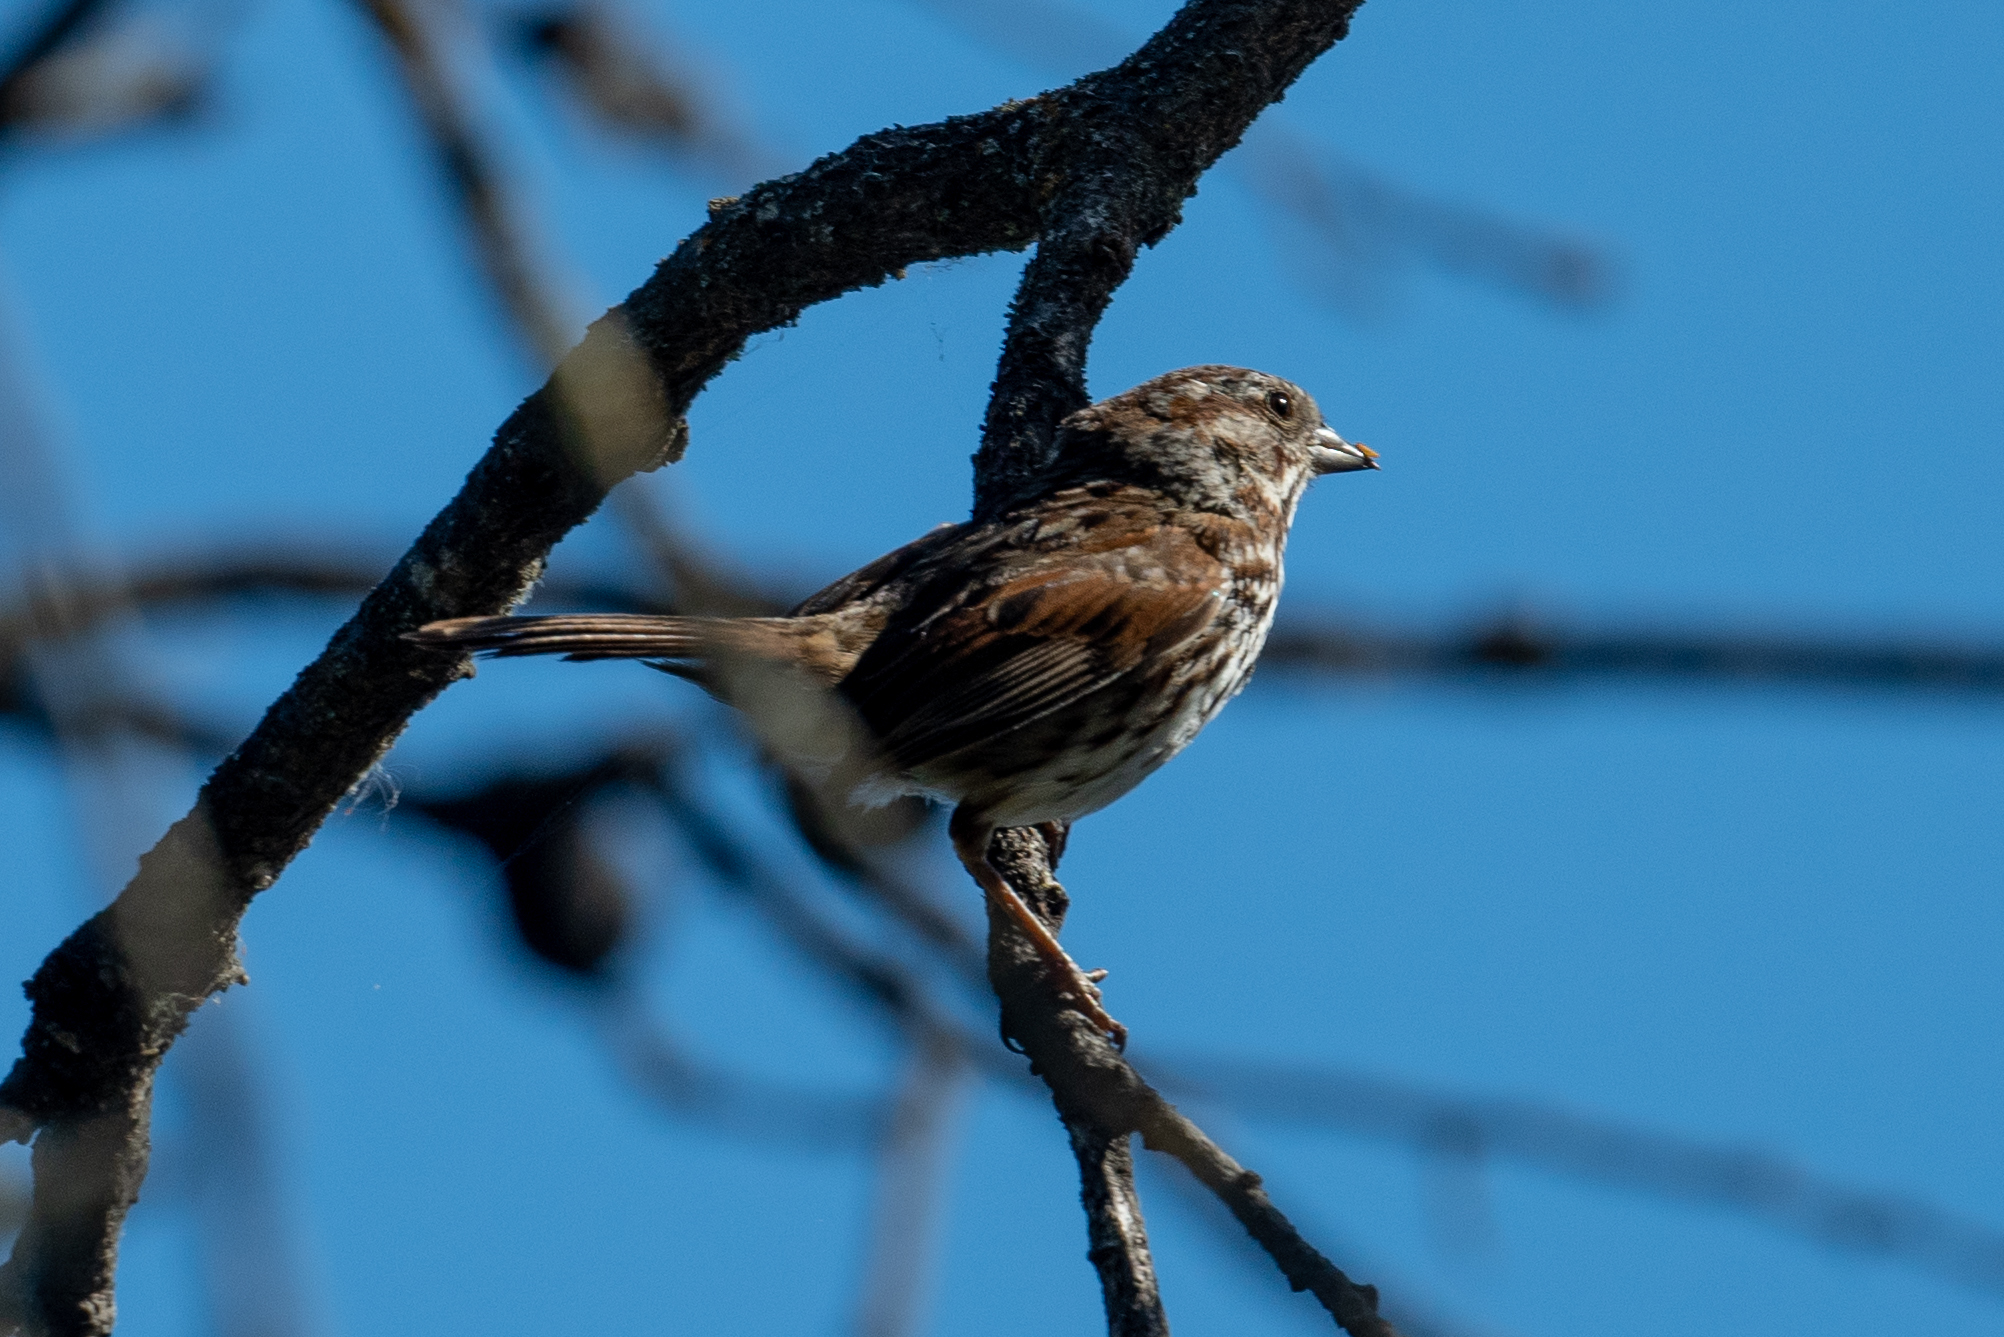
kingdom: Animalia
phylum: Chordata
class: Aves
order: Passeriformes
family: Passerellidae
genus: Melospiza
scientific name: Melospiza melodia
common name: Song sparrow
